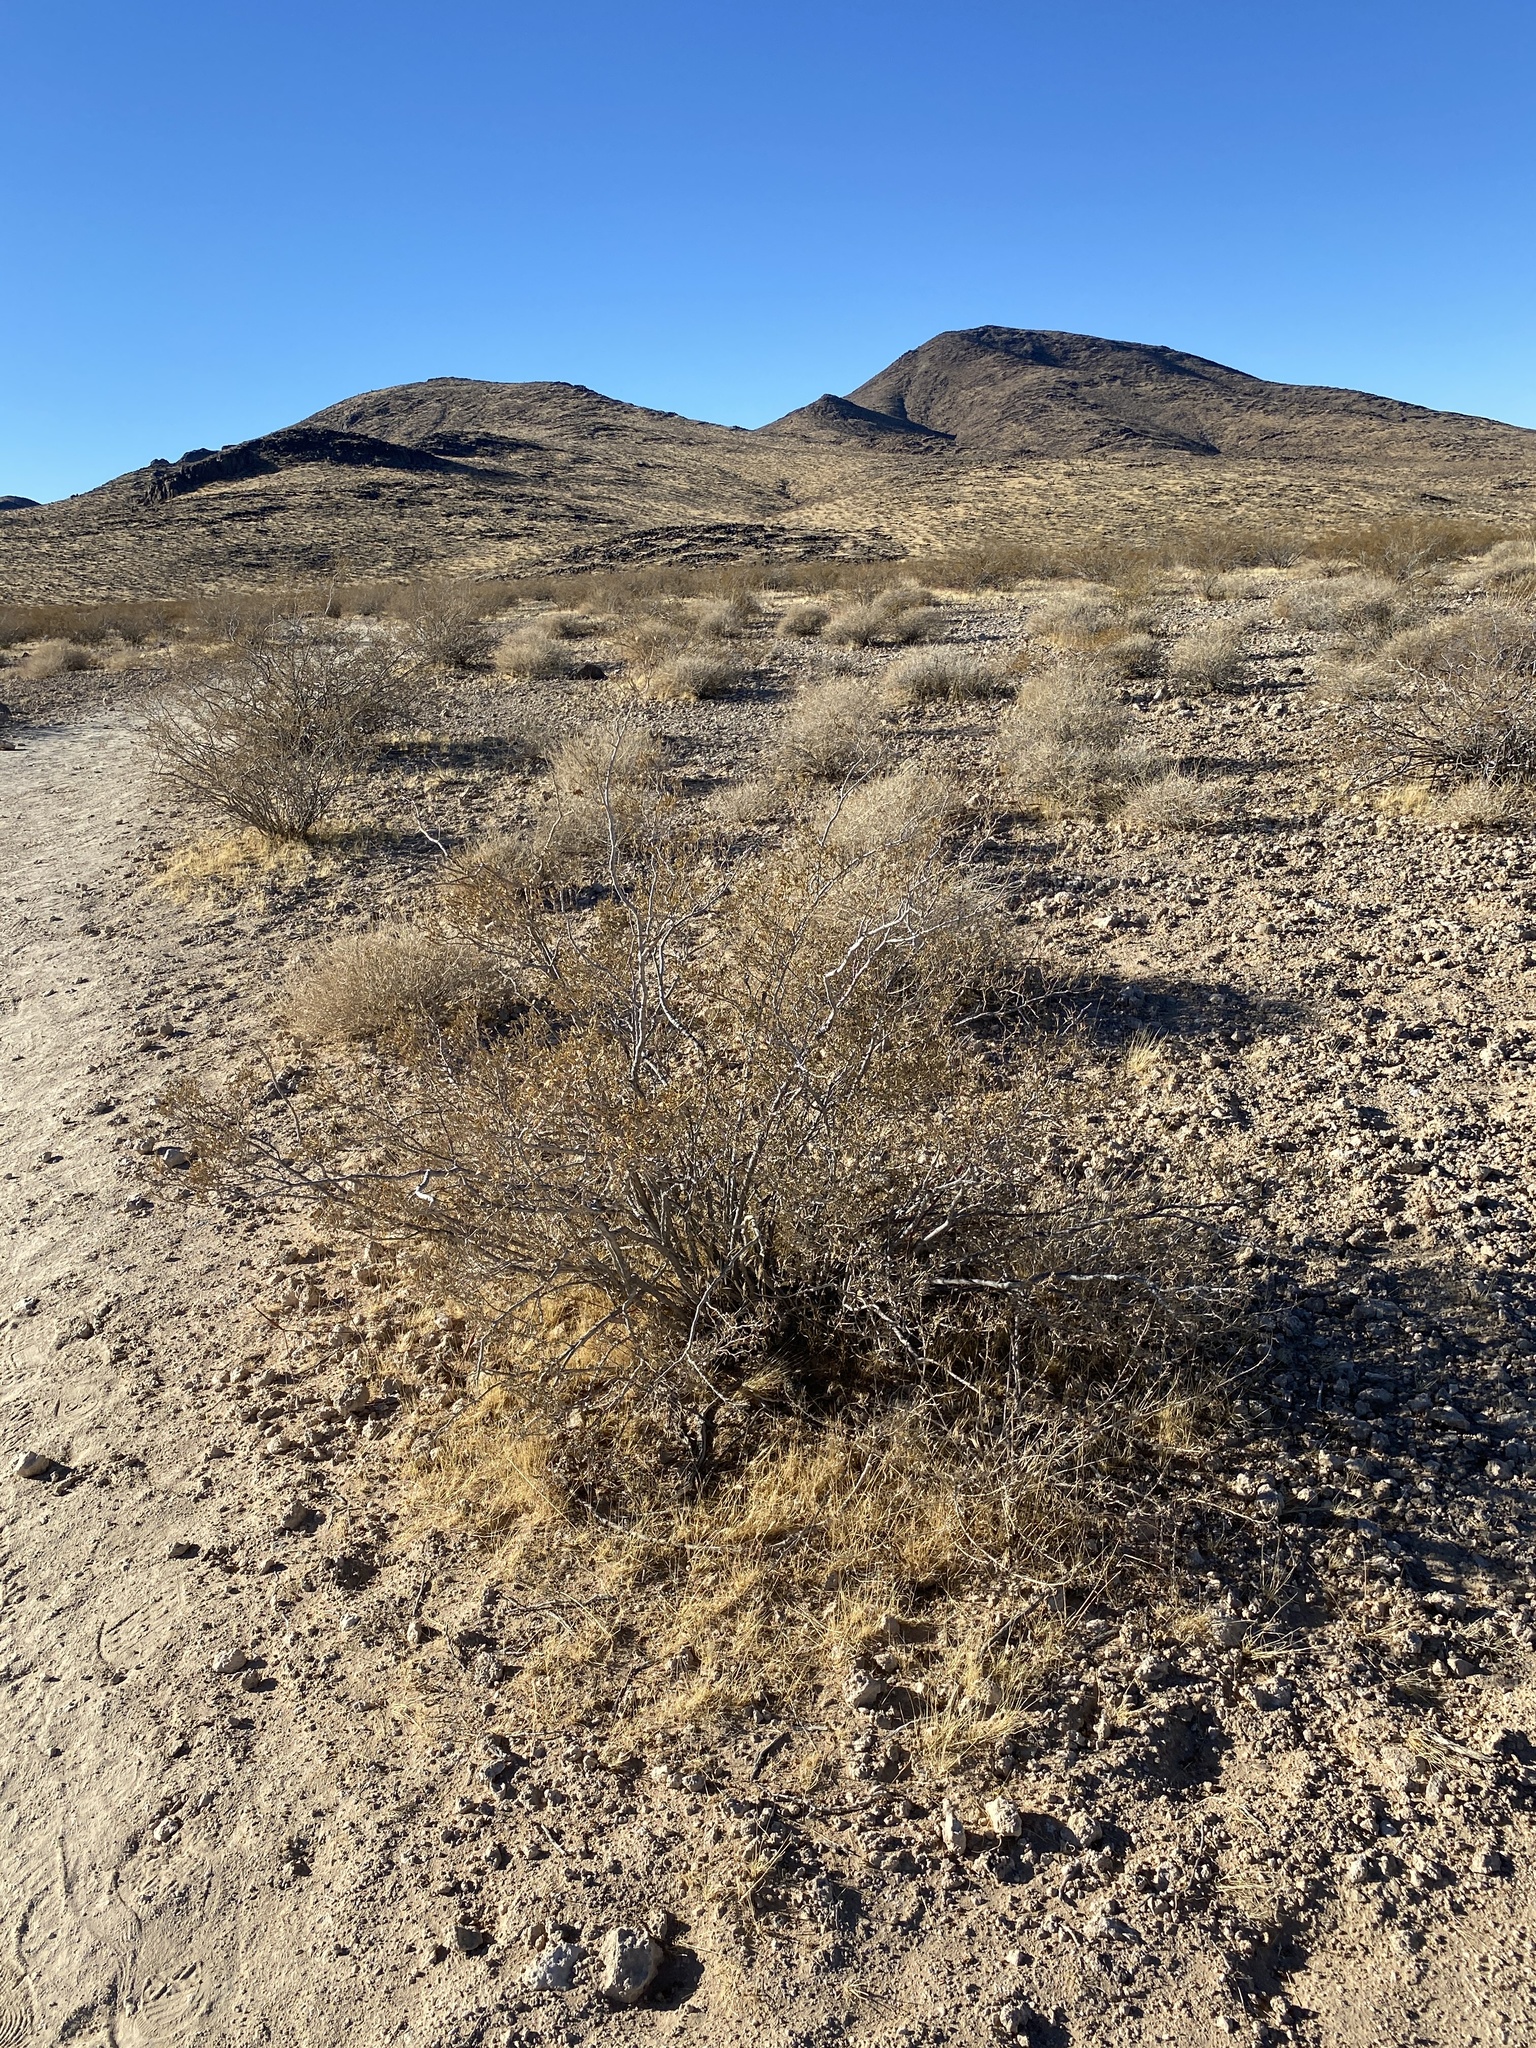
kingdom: Plantae
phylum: Tracheophyta
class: Magnoliopsida
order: Zygophyllales
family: Zygophyllaceae
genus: Larrea
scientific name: Larrea tridentata
